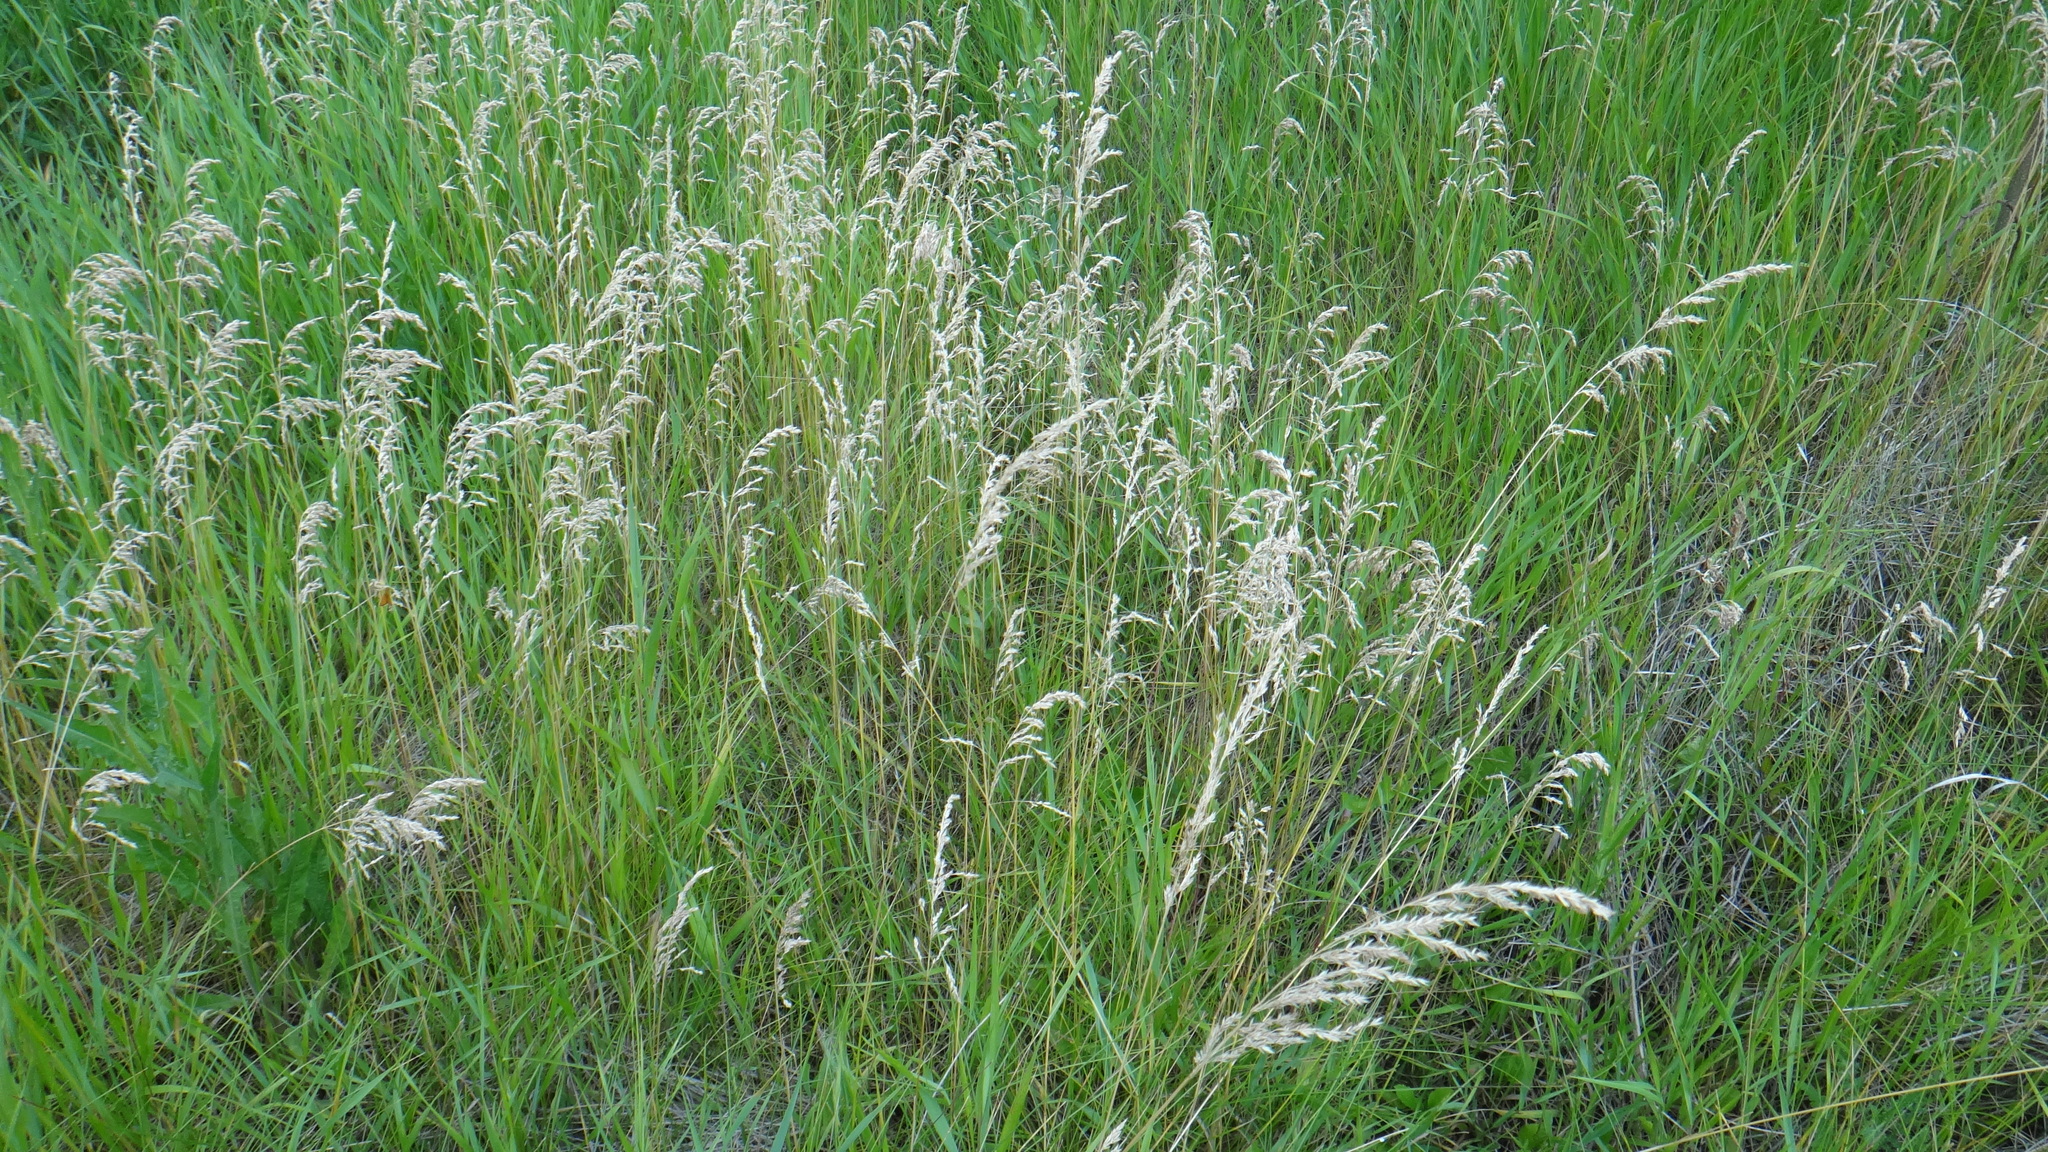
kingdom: Plantae
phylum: Tracheophyta
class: Liliopsida
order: Poales
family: Poaceae
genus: Poa
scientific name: Poa pratensis
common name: Kentucky bluegrass
